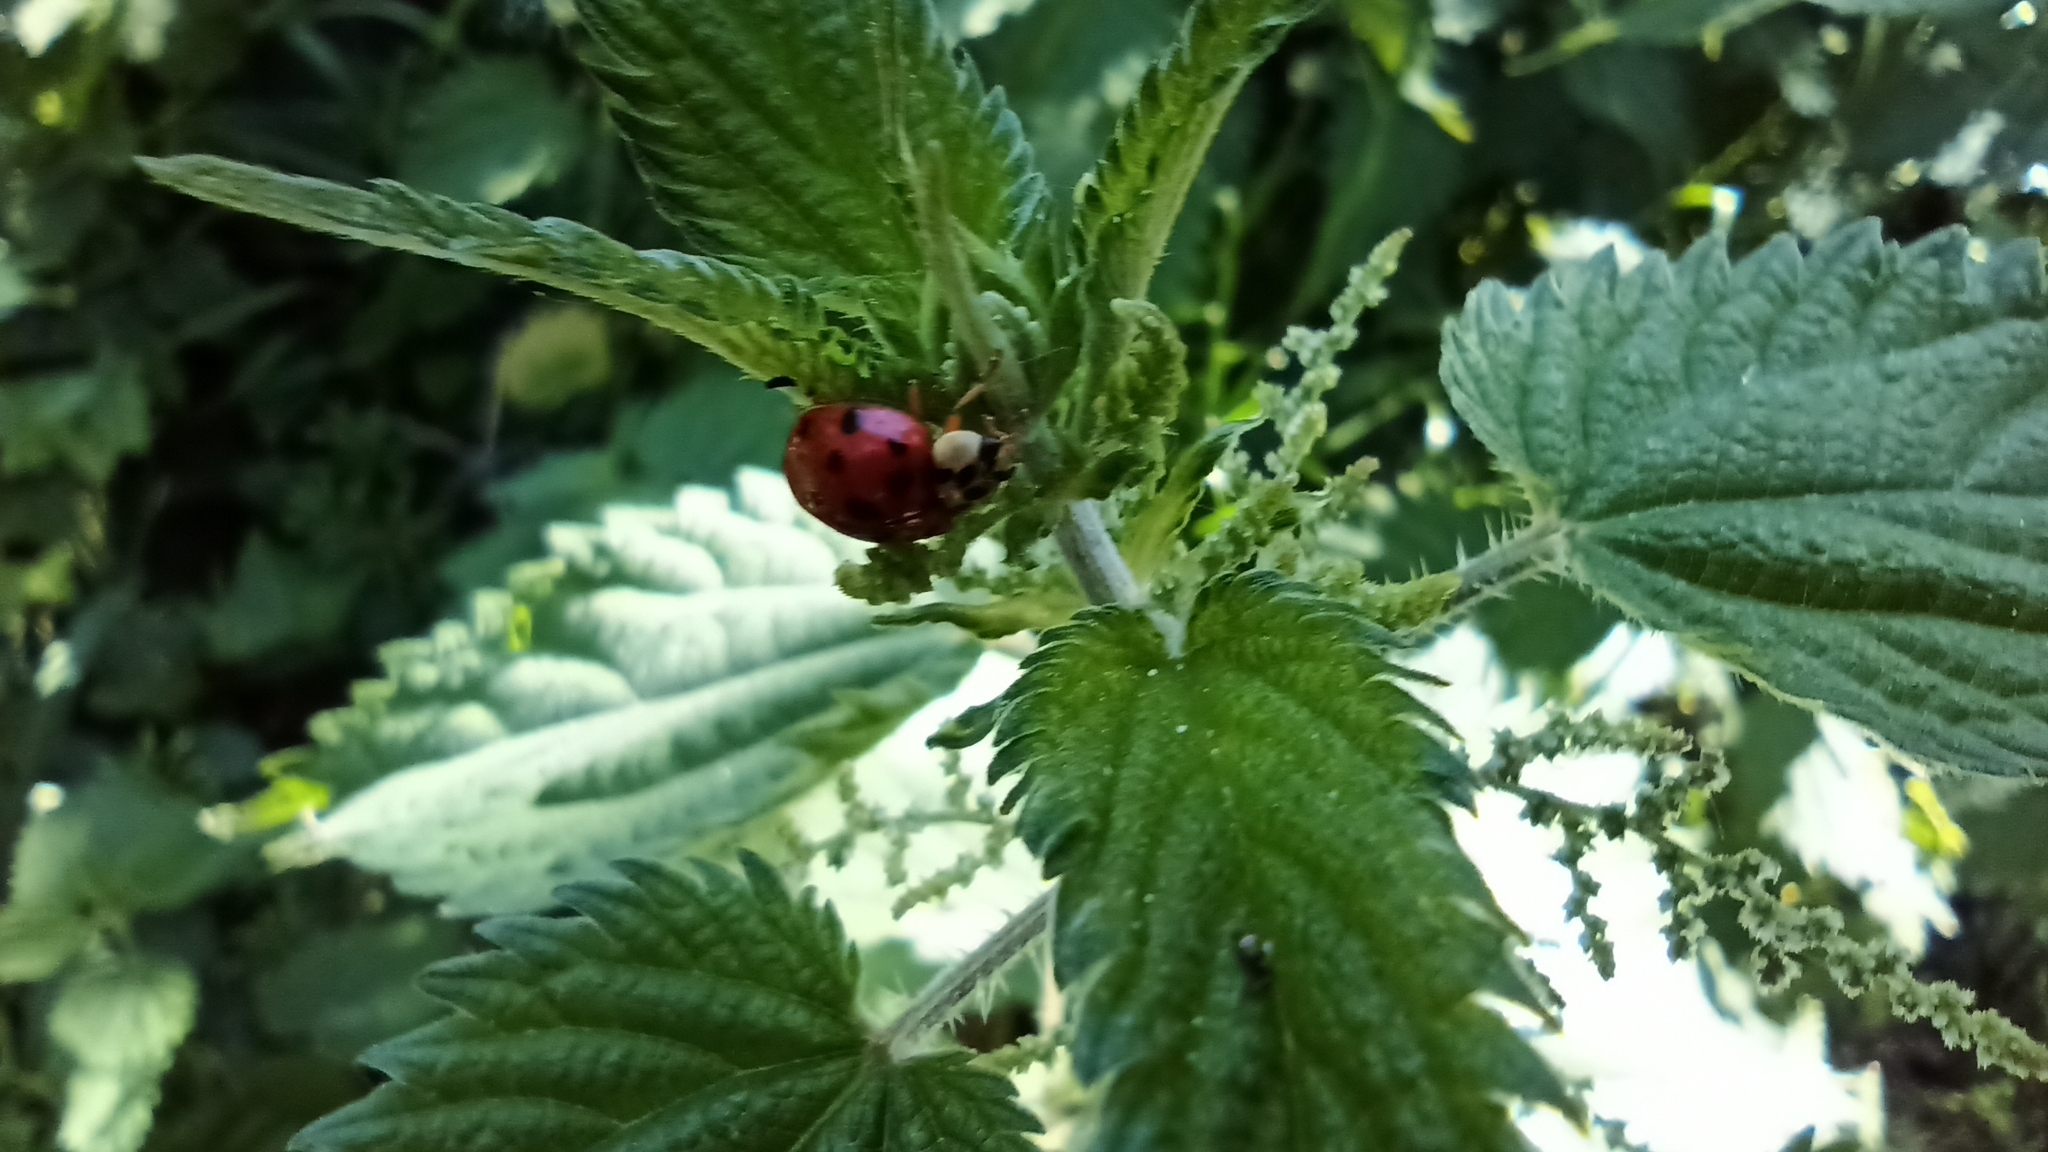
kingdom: Animalia
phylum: Arthropoda
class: Insecta
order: Coleoptera
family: Coccinellidae
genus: Harmonia
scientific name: Harmonia axyridis
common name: Harlequin ladybird
